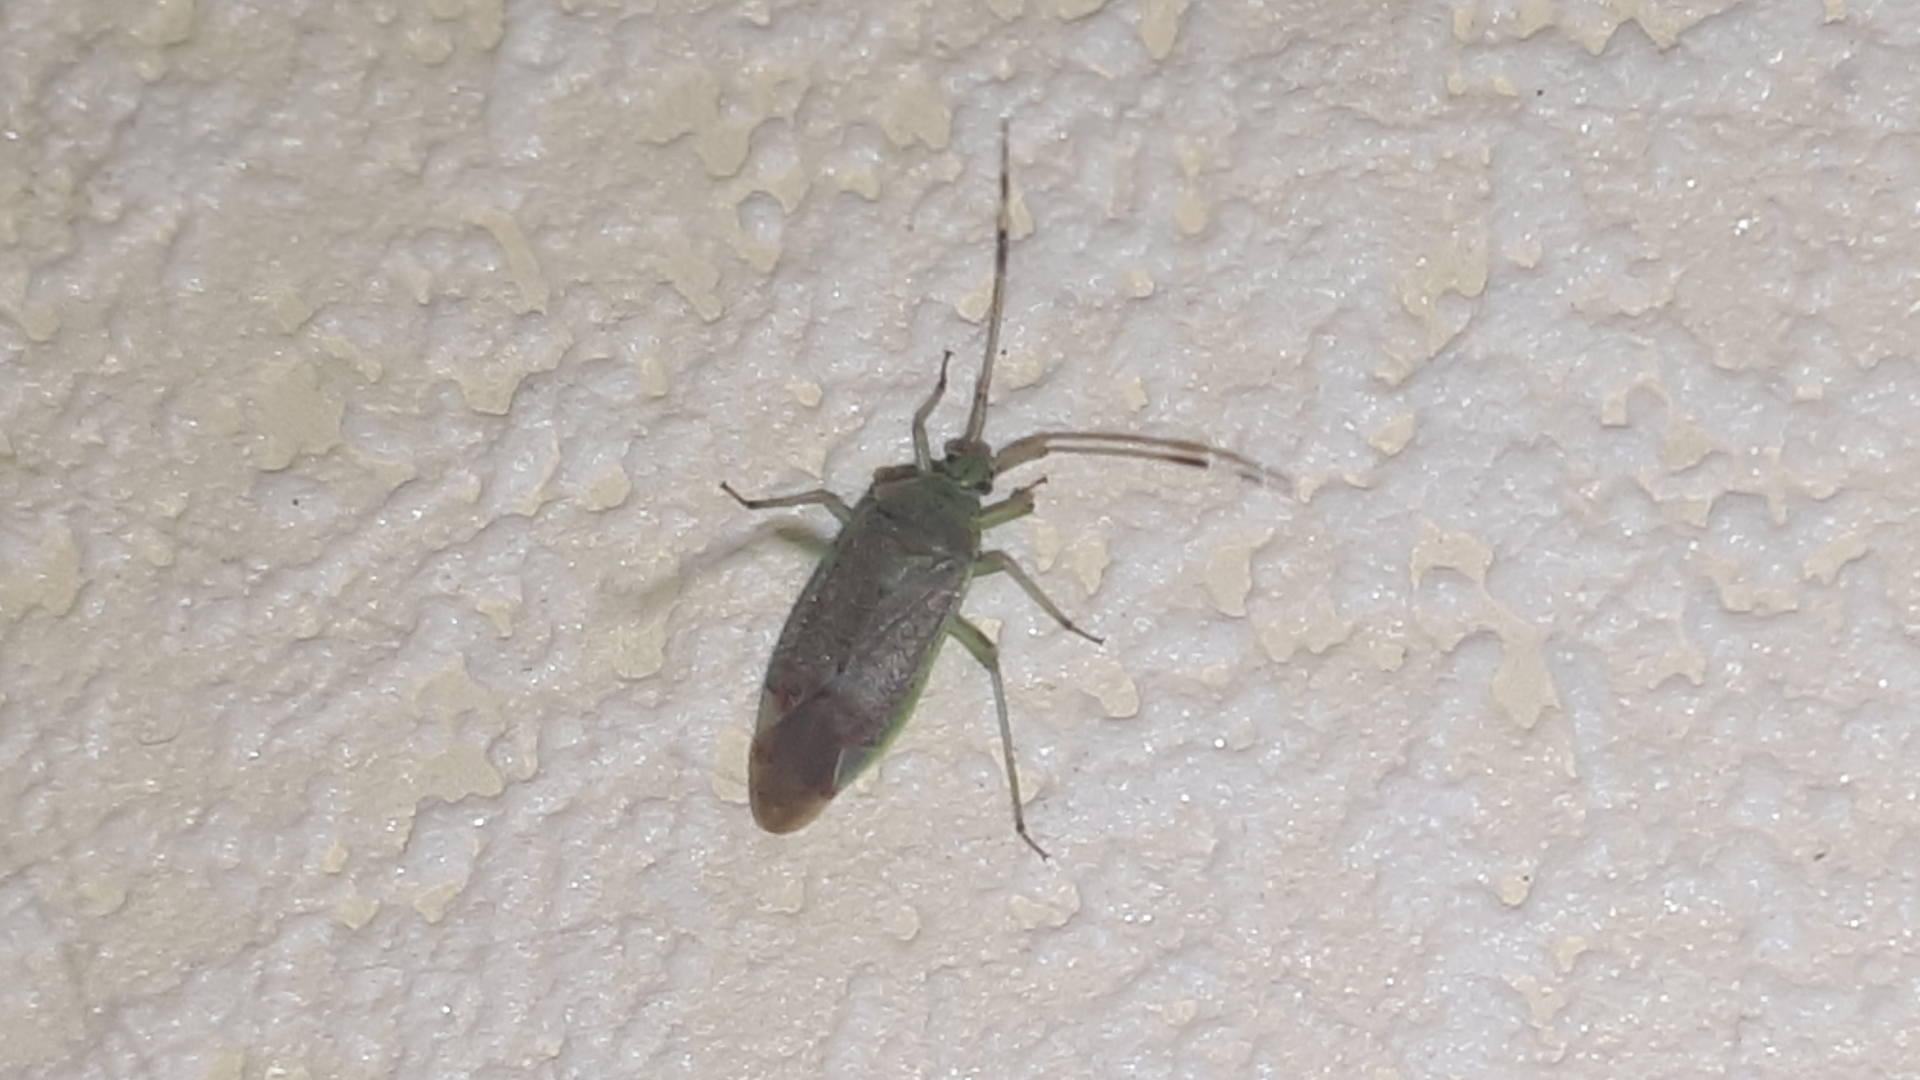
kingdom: Animalia
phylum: Arthropoda
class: Insecta
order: Hemiptera
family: Miridae
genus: Pantilius
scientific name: Pantilius tunicatus
